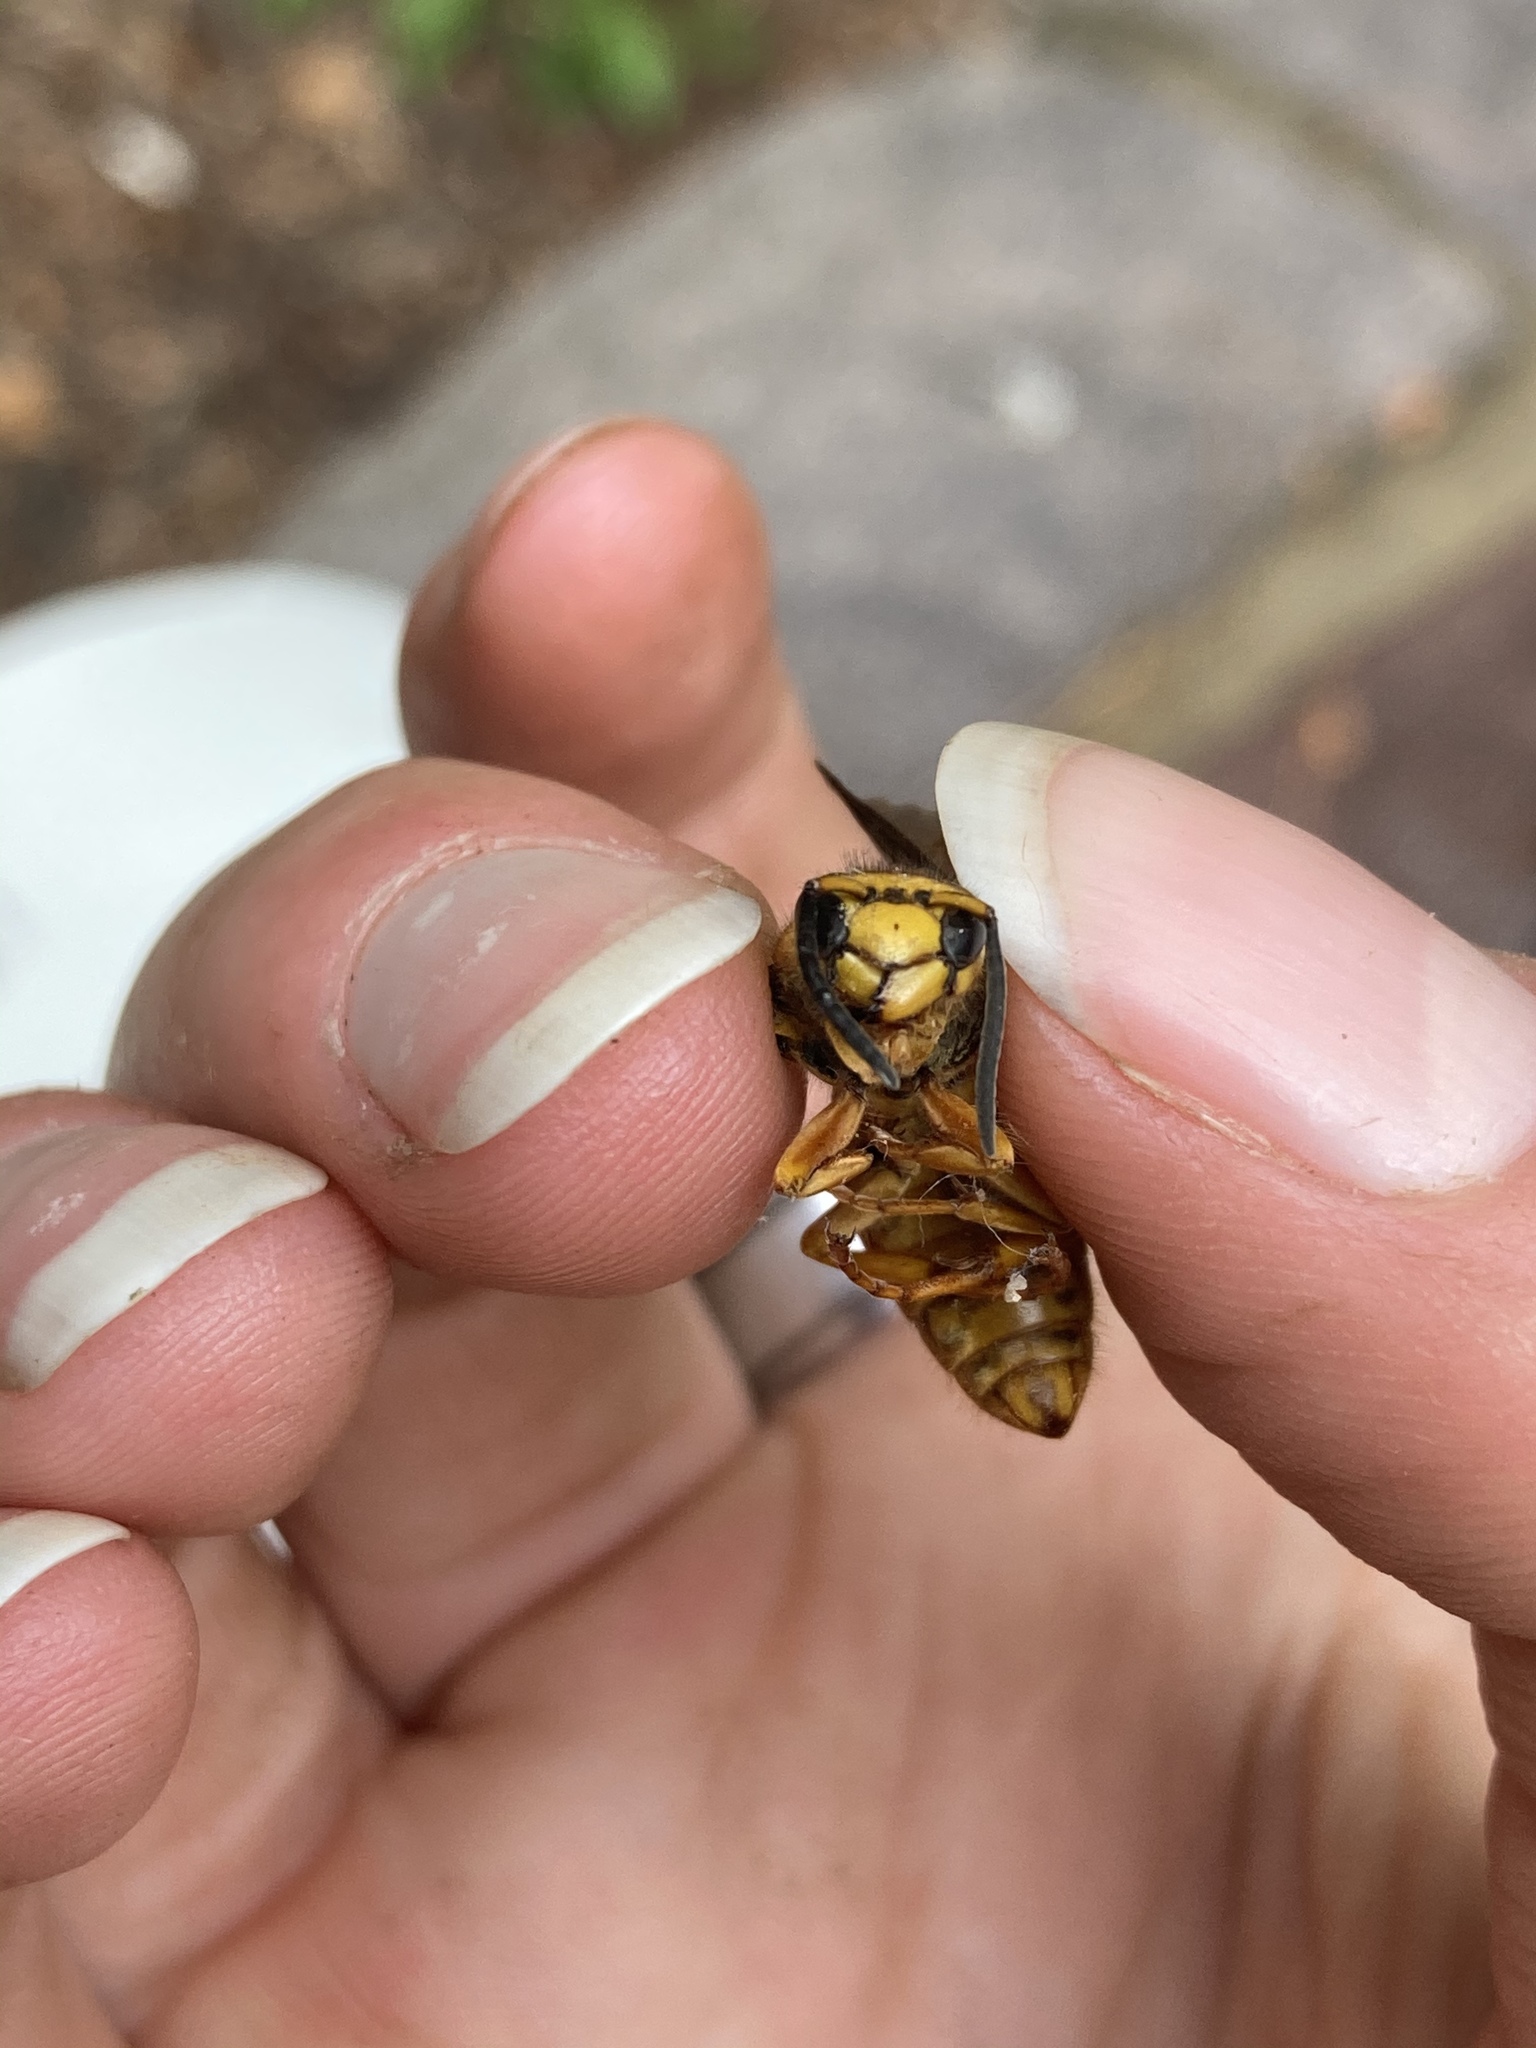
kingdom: Animalia
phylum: Arthropoda
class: Insecta
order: Hymenoptera
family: Vespidae
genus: Vespula
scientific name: Vespula squamosa
